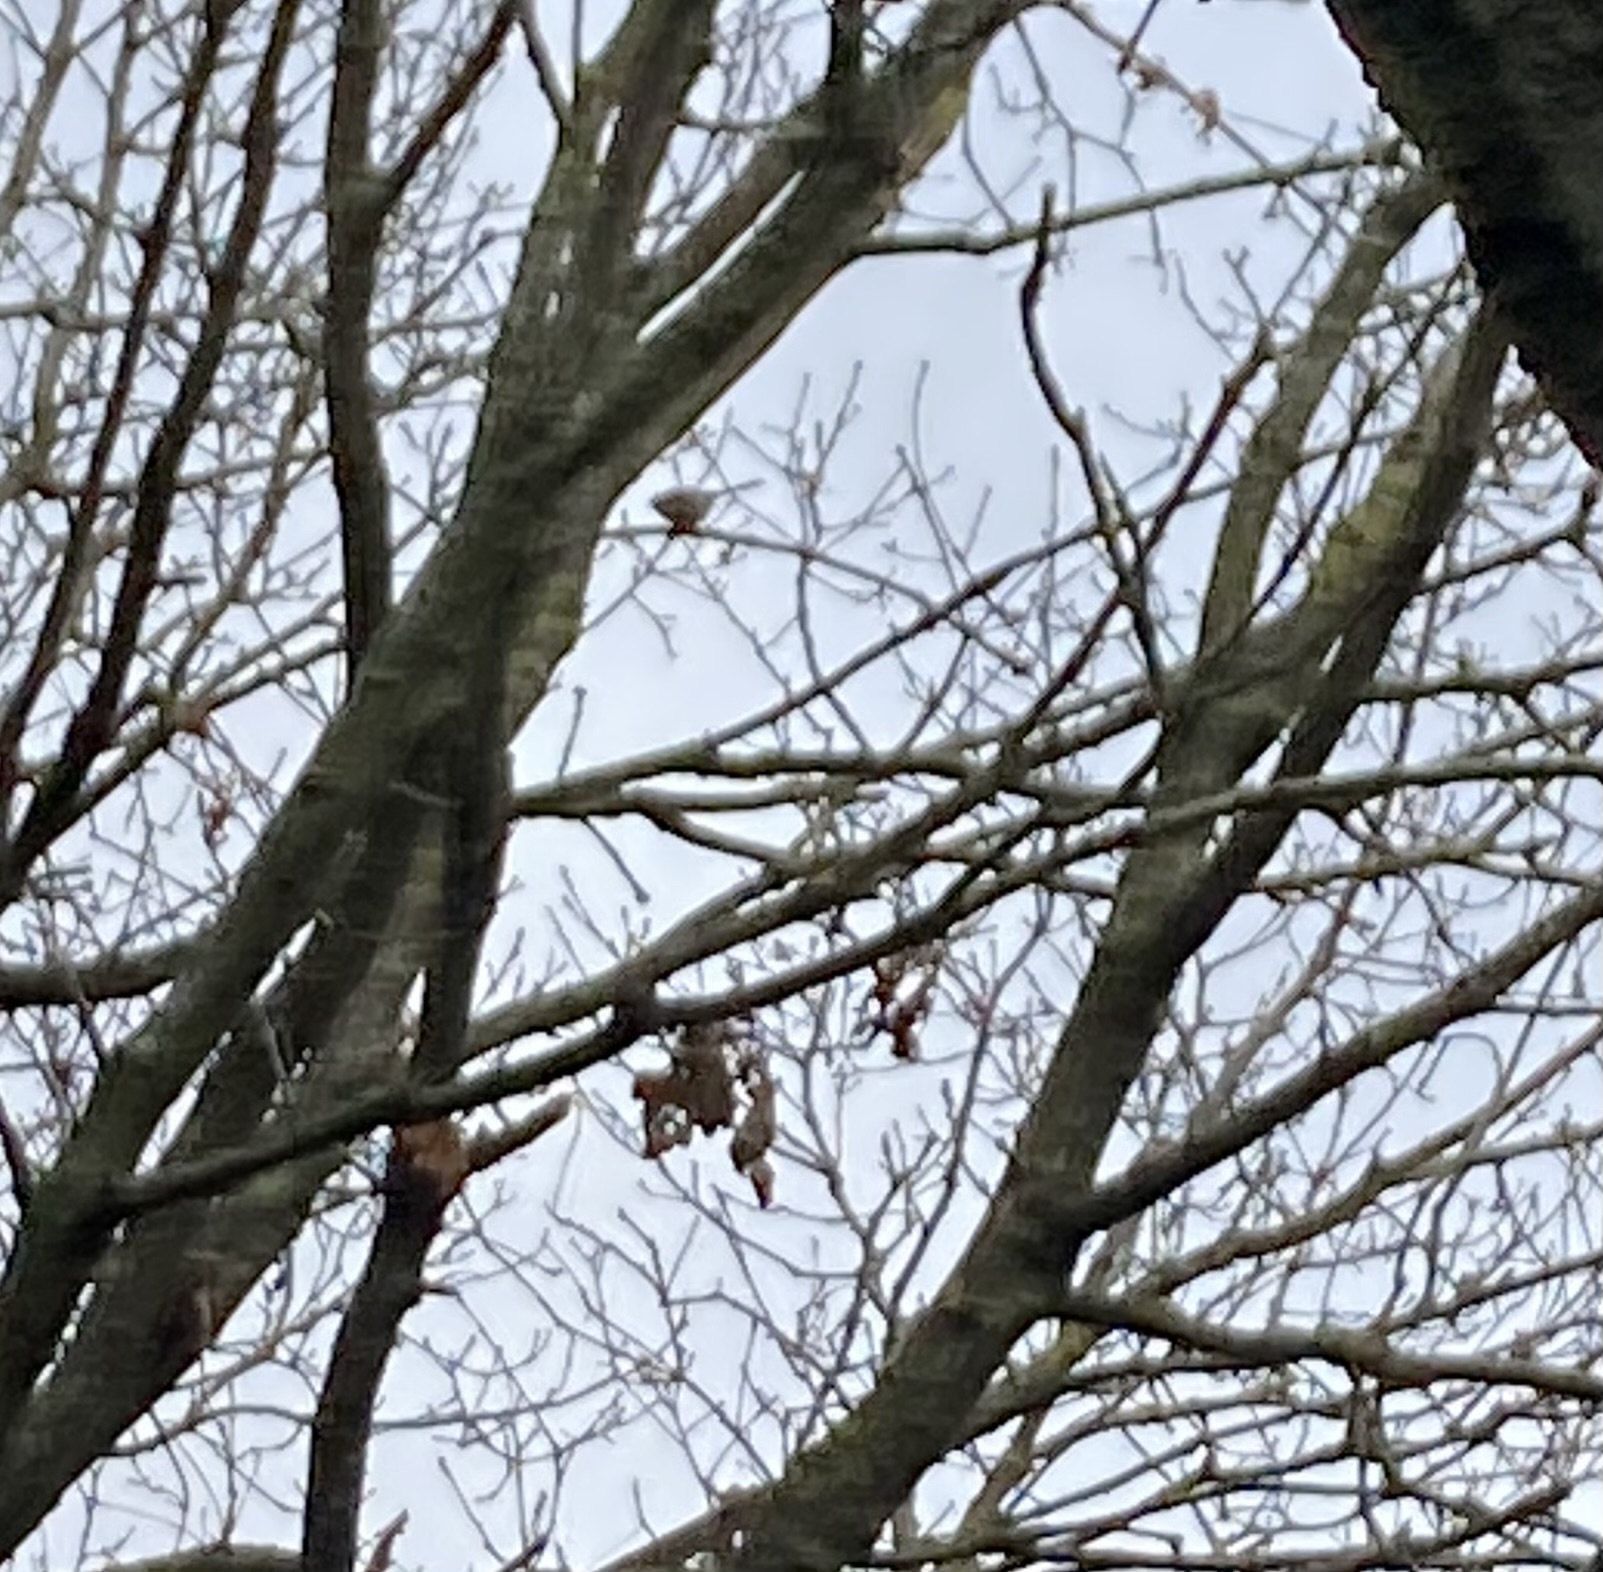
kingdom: Animalia
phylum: Chordata
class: Aves
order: Passeriformes
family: Aegithalidae
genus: Aegithalos
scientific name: Aegithalos caudatus
